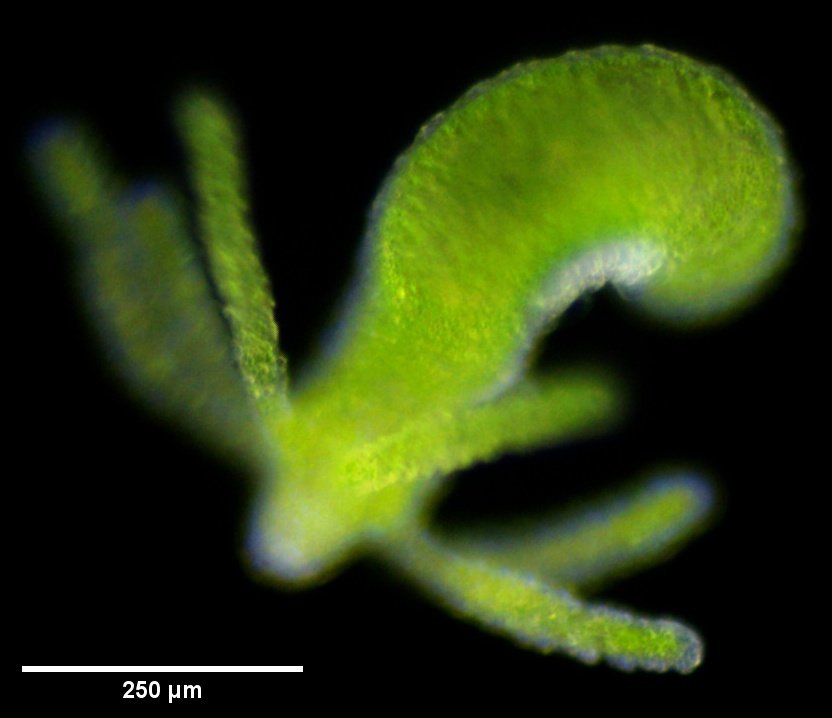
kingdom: Animalia
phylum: Cnidaria
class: Hydrozoa
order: Anthoathecata
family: Hydridae
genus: Hydra
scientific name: Hydra viridissima
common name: Green hydra
